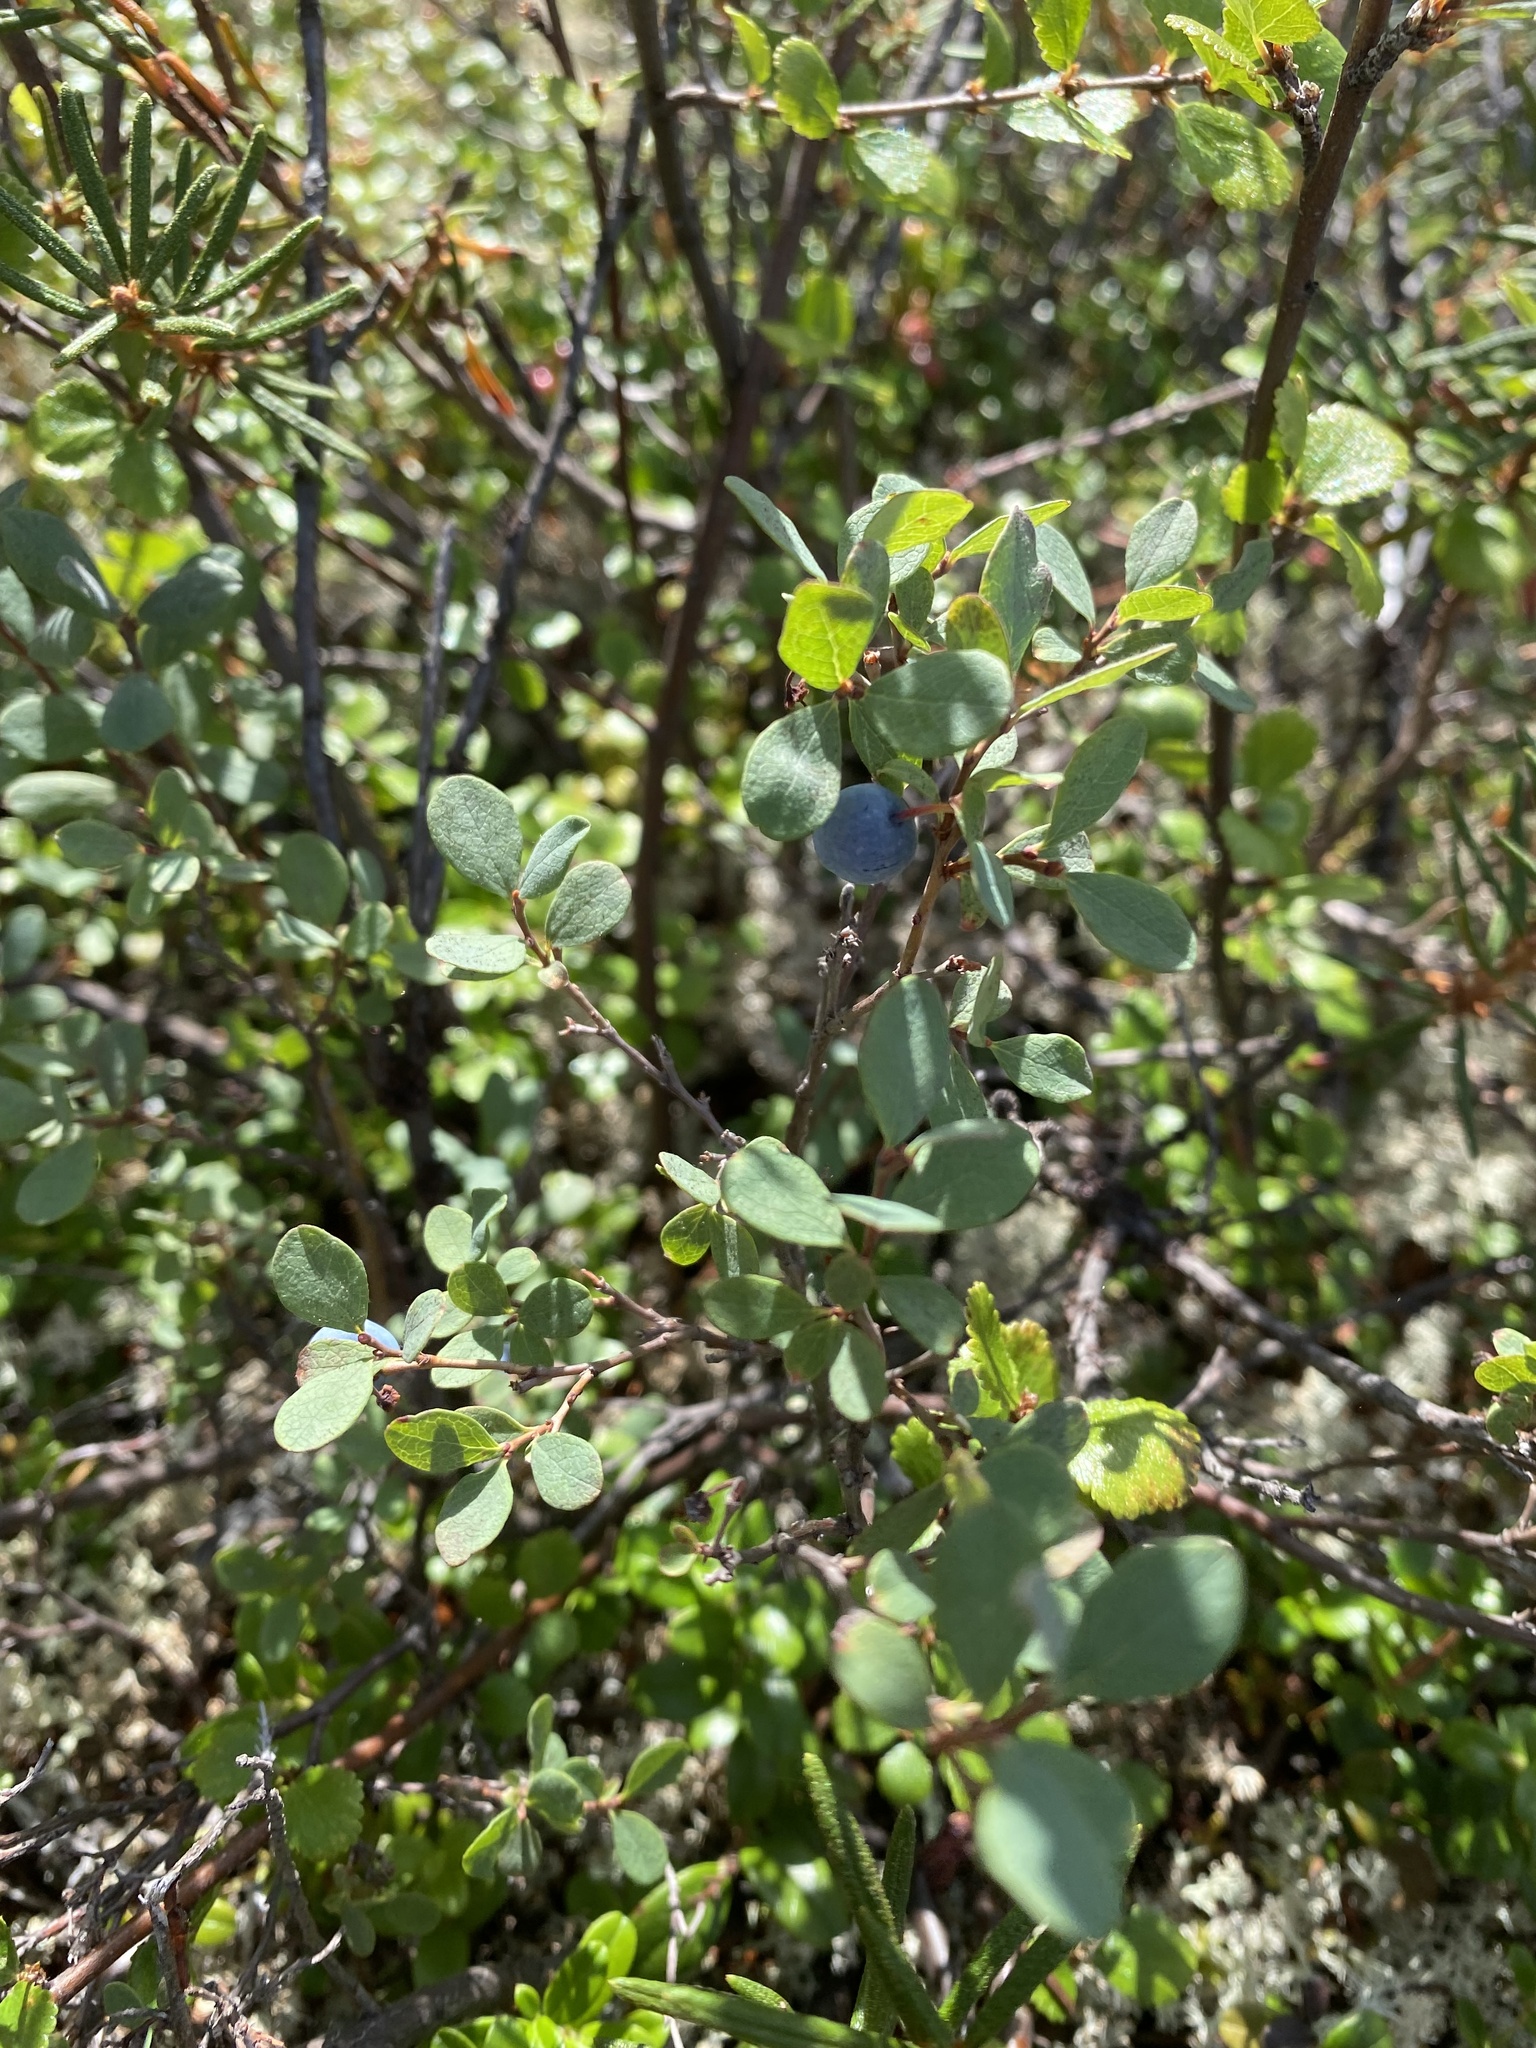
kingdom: Plantae
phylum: Tracheophyta
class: Magnoliopsida
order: Ericales
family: Ericaceae
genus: Vaccinium
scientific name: Vaccinium uliginosum
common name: Bog bilberry
